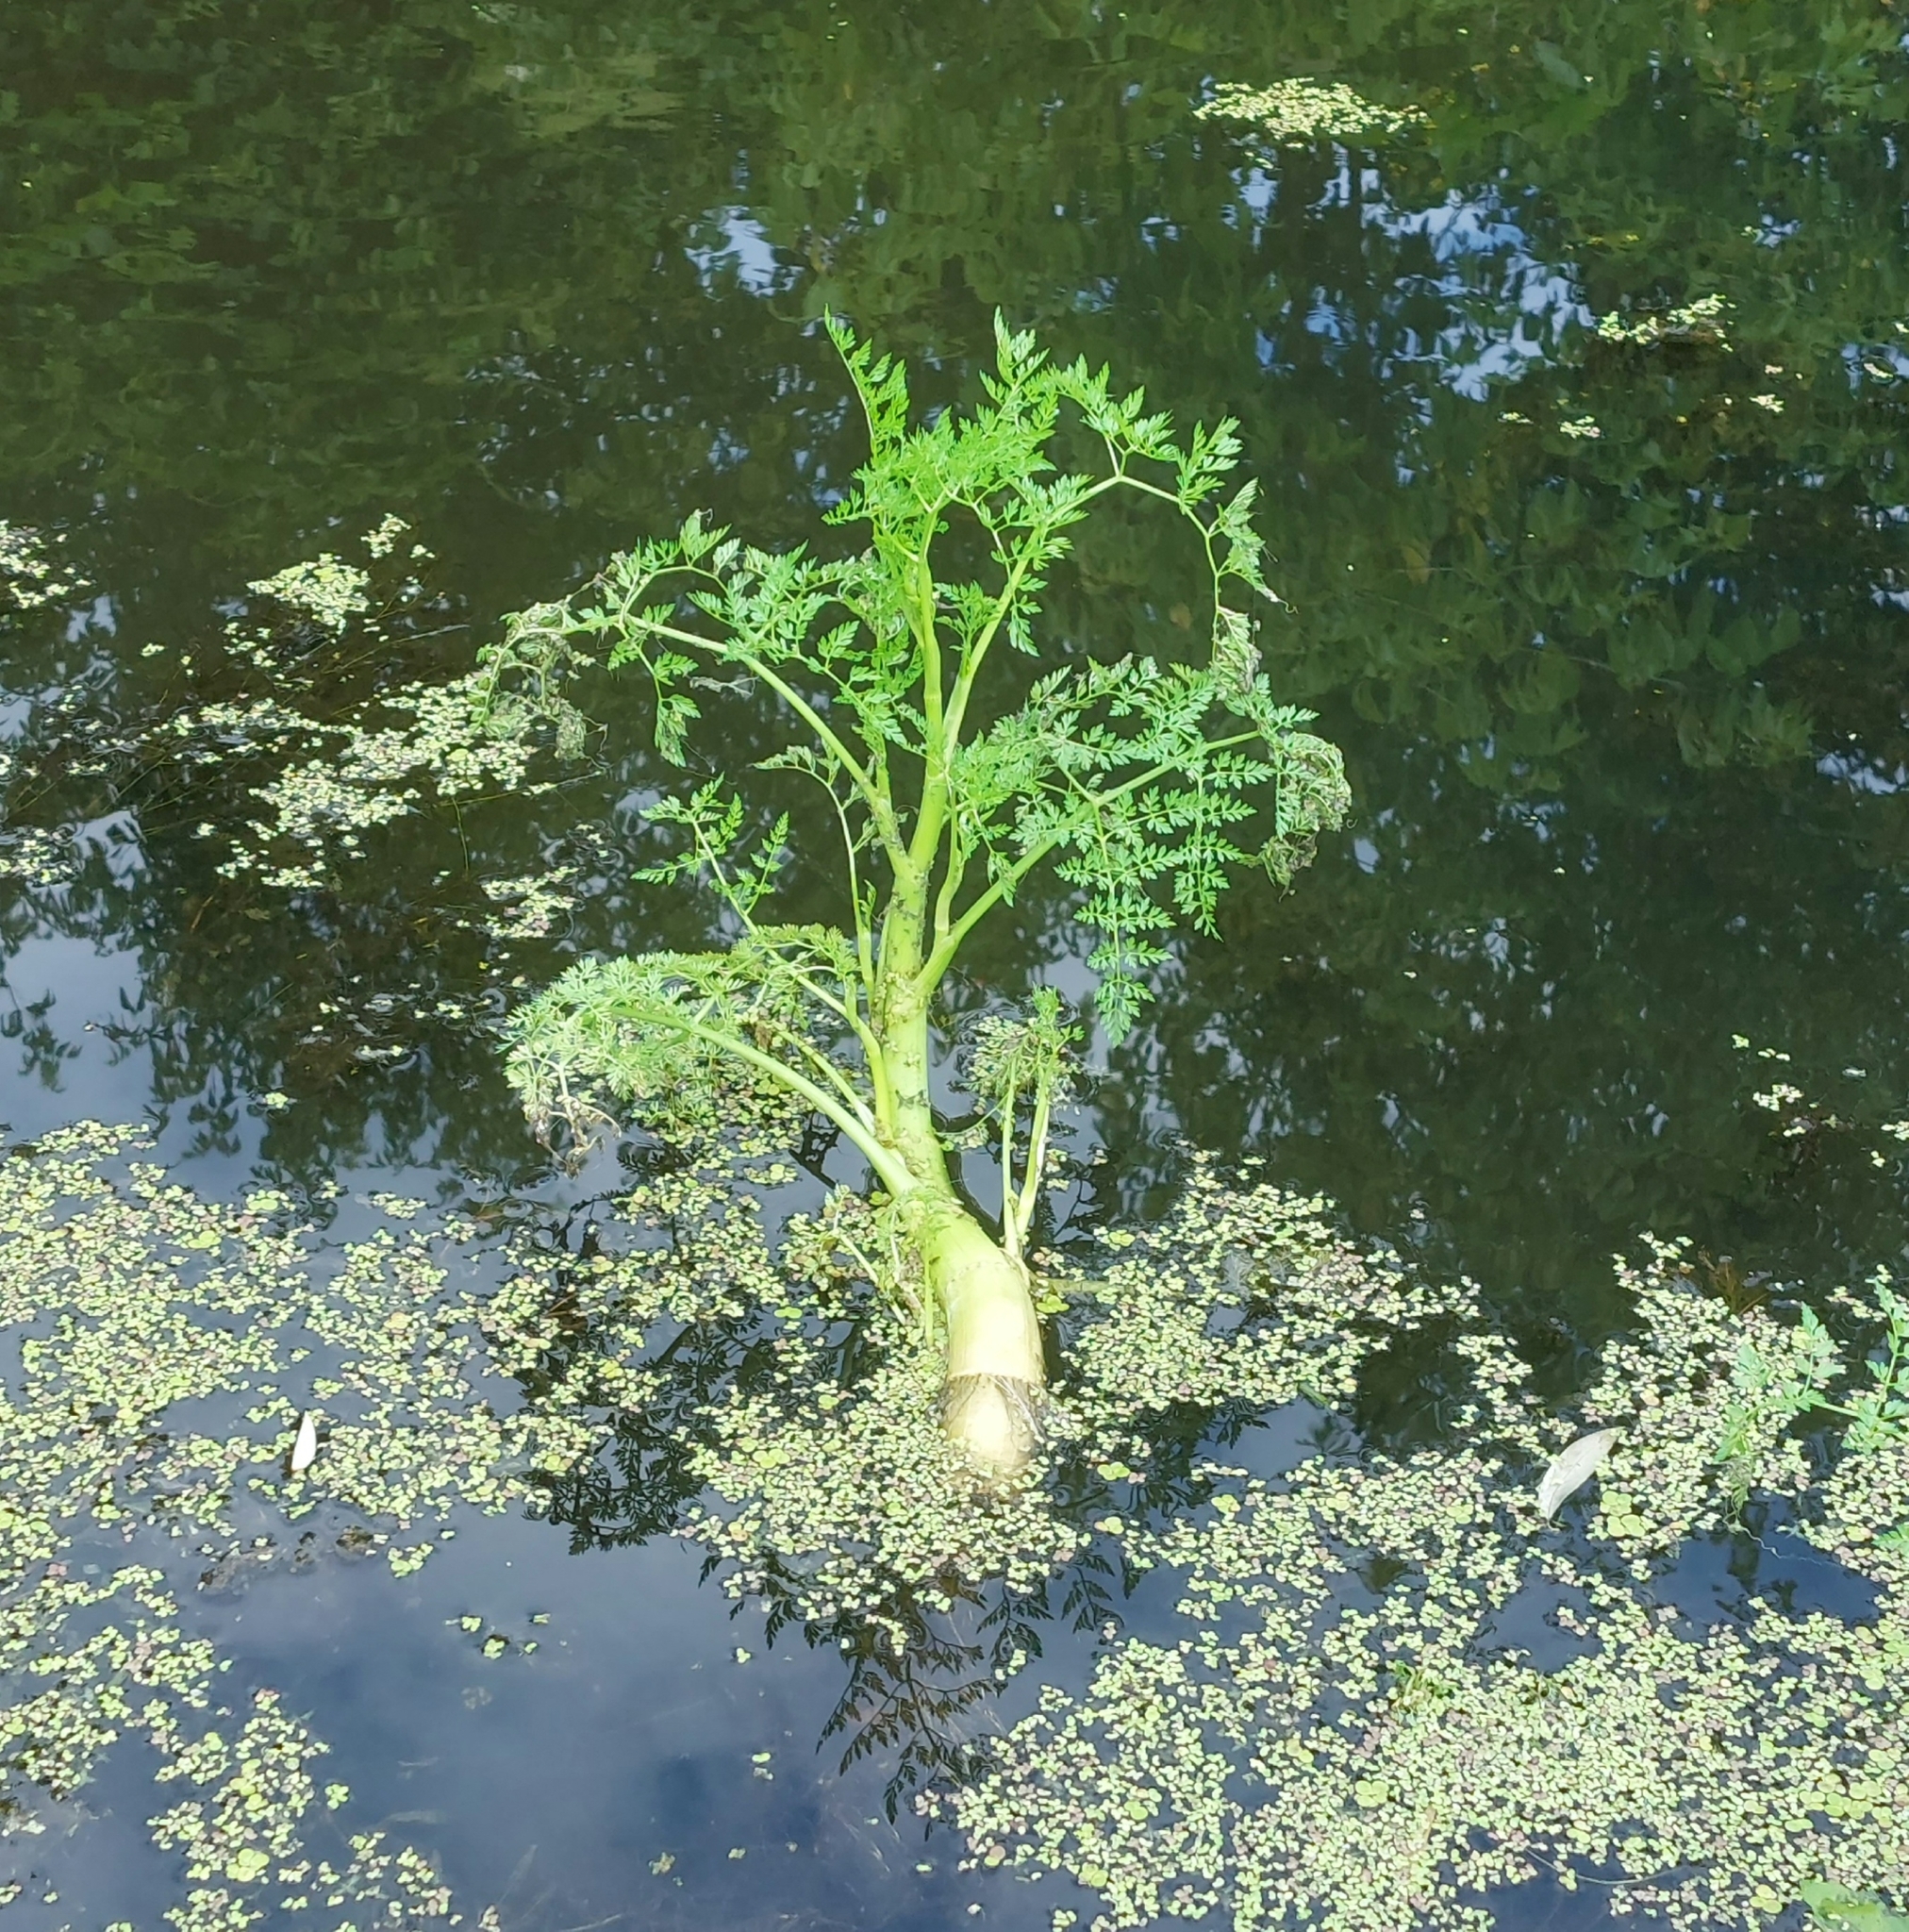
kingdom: Plantae
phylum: Tracheophyta
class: Magnoliopsida
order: Apiales
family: Apiaceae
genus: Oenanthe
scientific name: Oenanthe aquatica
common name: Fine-leaved water-dropwort
